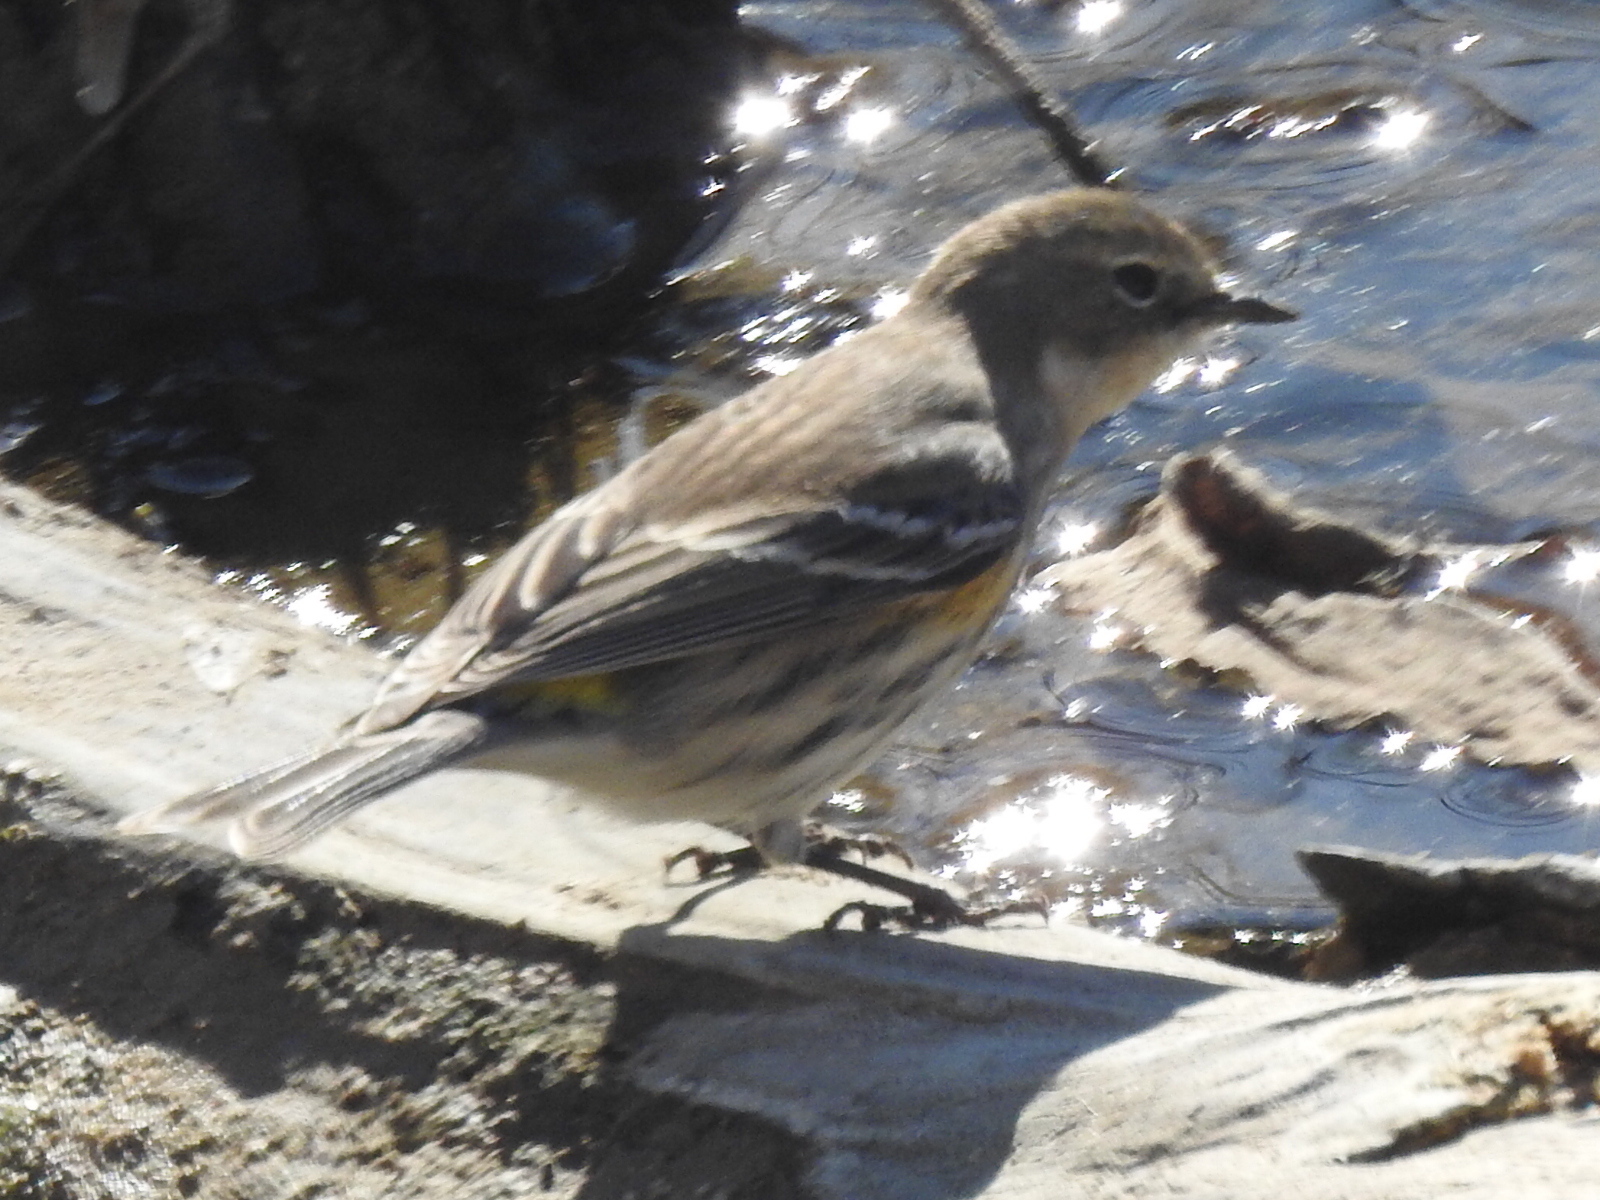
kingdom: Animalia
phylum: Chordata
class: Aves
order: Passeriformes
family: Parulidae
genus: Setophaga
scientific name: Setophaga coronata
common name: Myrtle warbler
